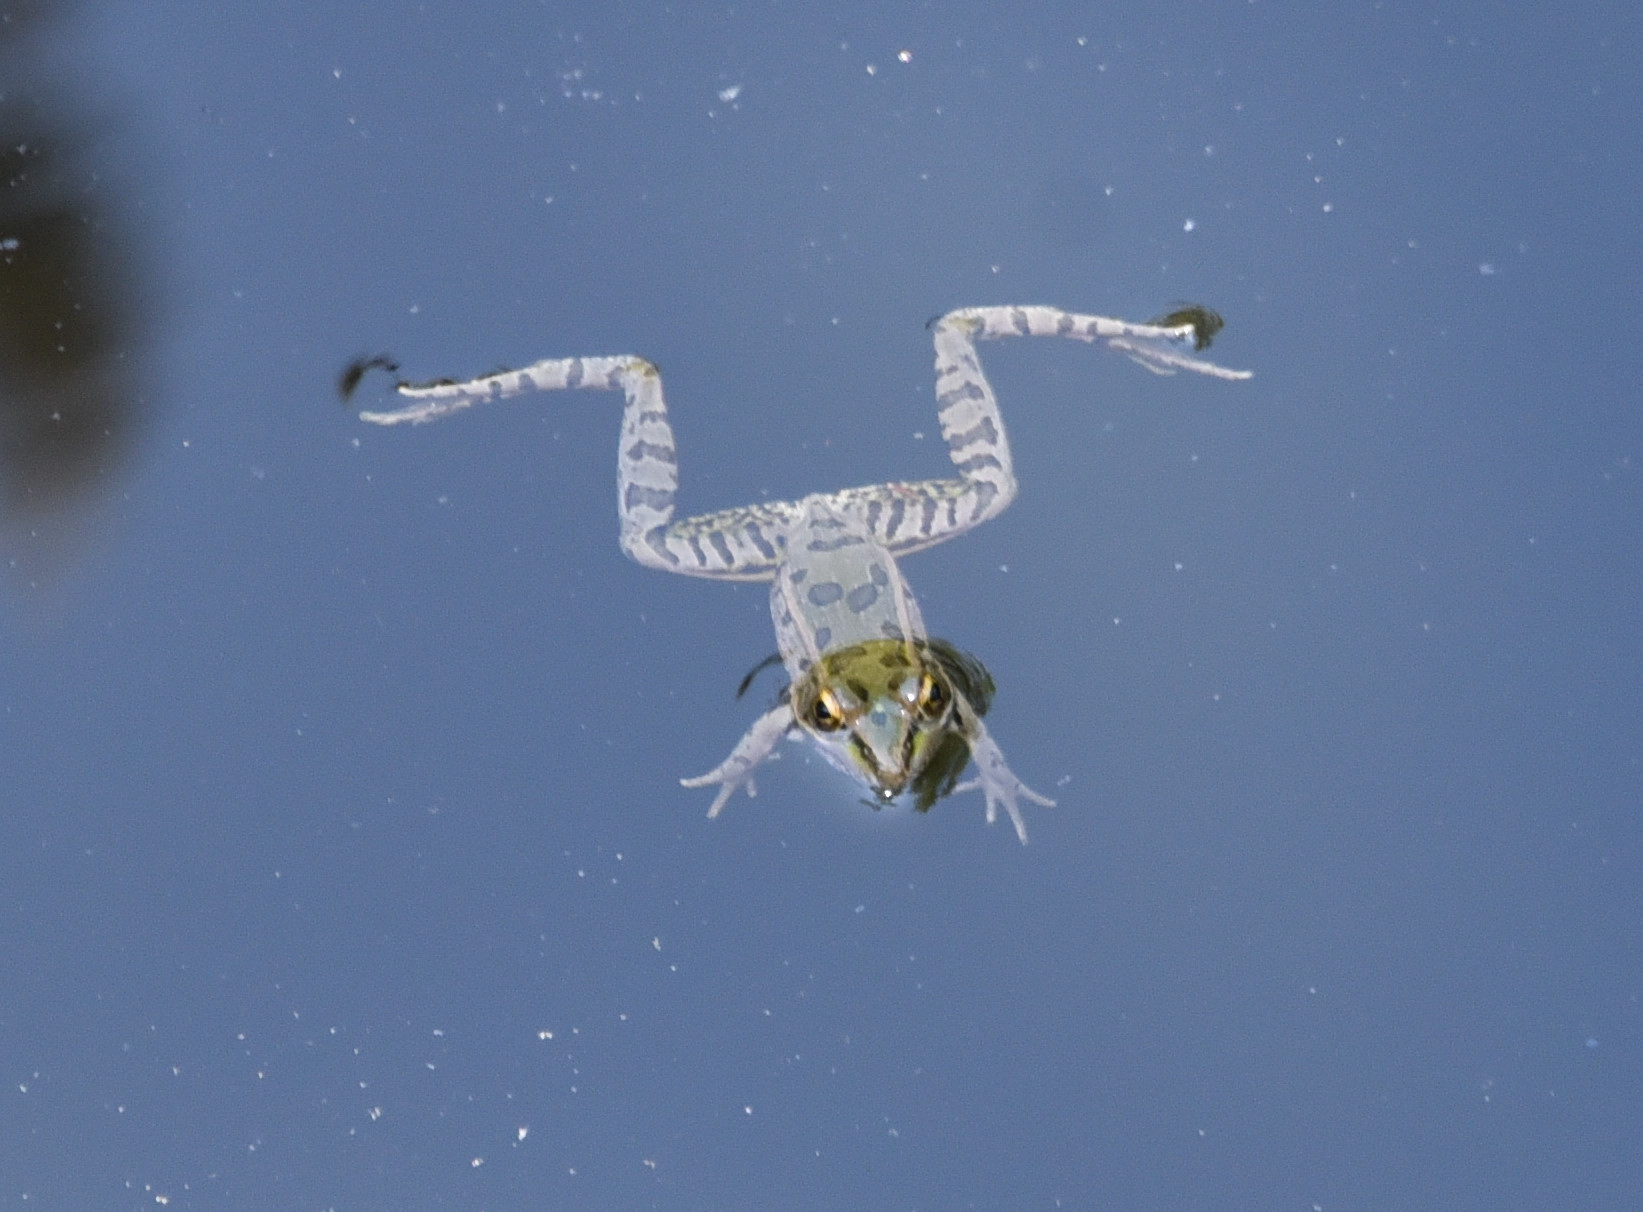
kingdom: Animalia
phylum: Chordata
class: Amphibia
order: Anura
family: Ranidae
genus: Lithobates
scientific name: Lithobates berlandieri
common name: Rio grande leopard frog
